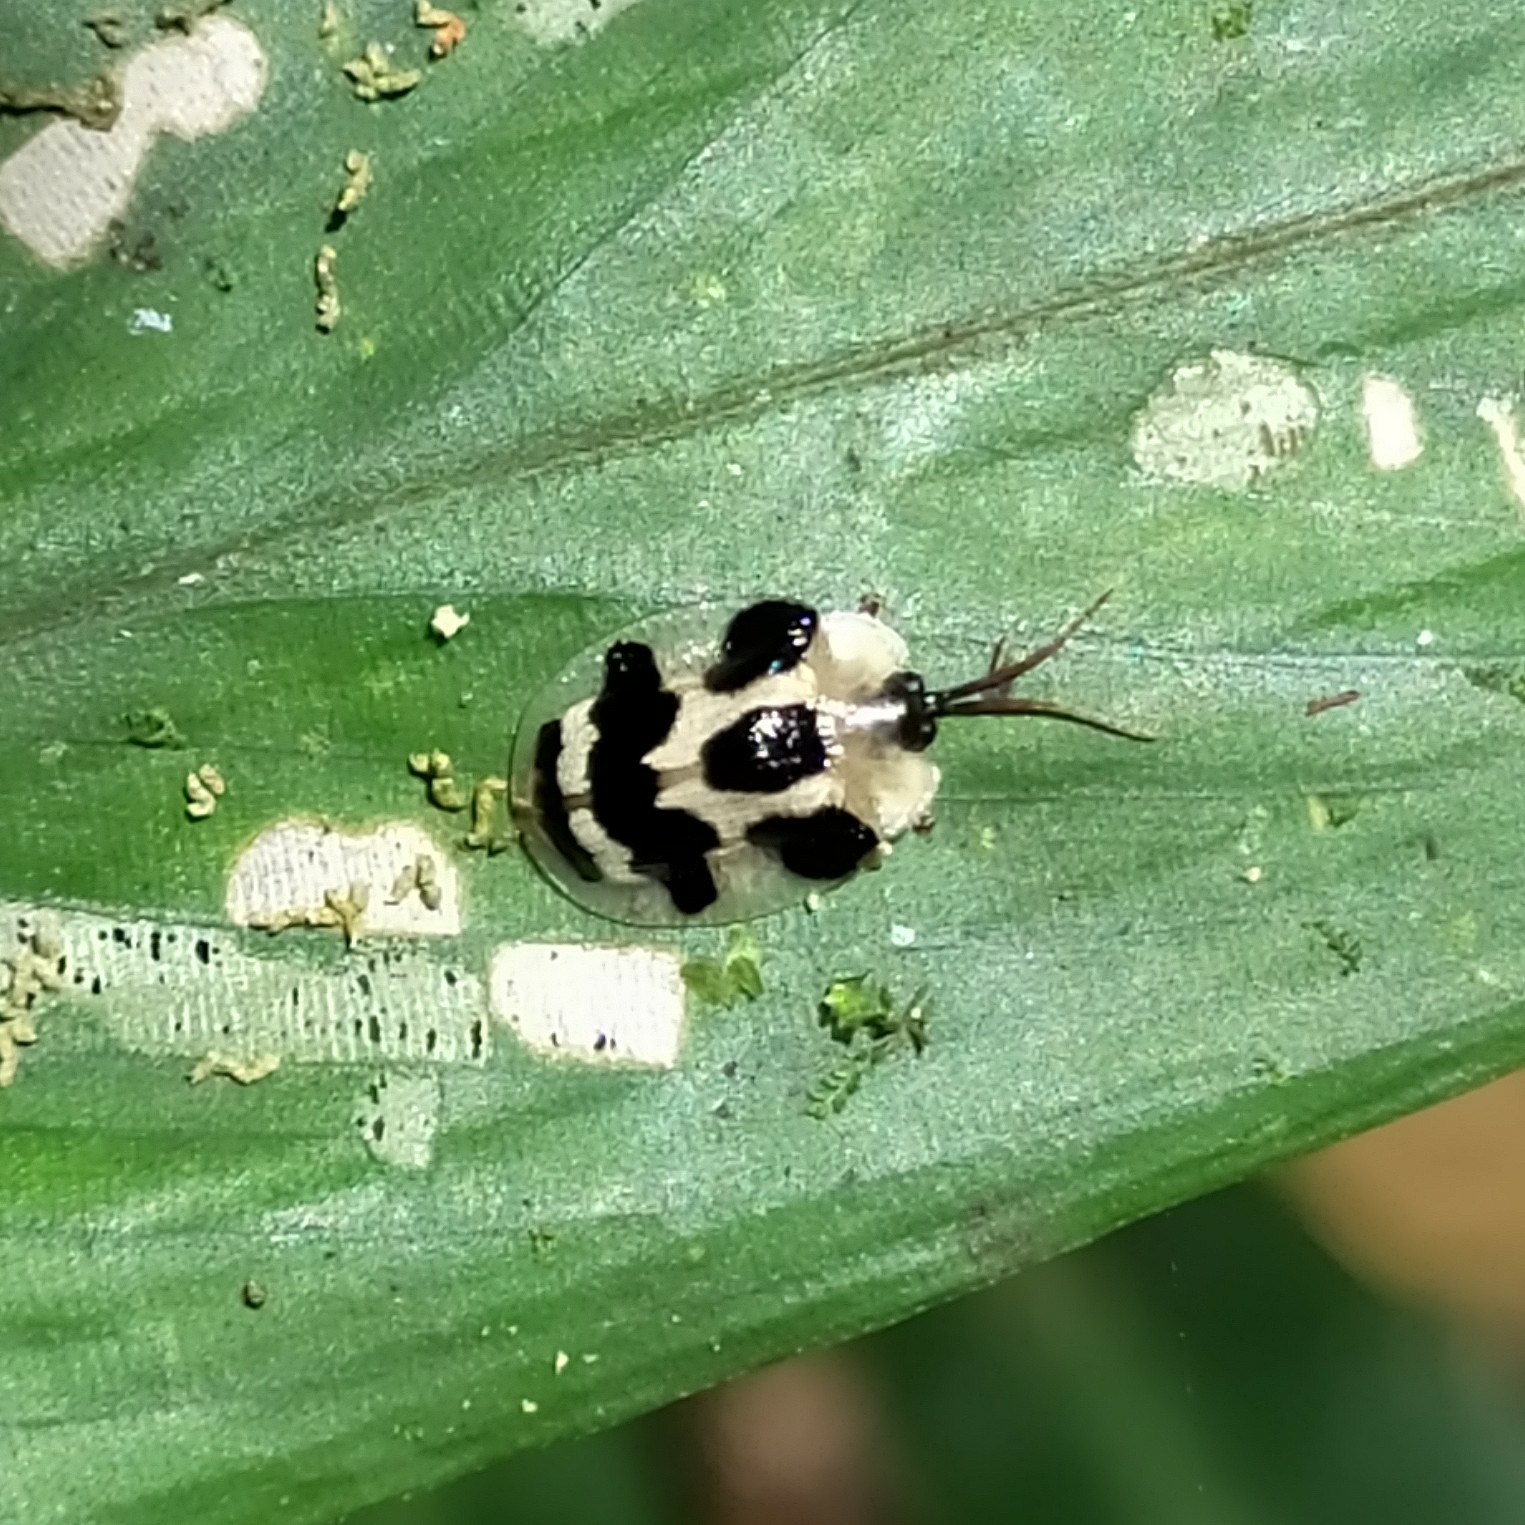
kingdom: Animalia
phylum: Arthropoda
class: Insecta
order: Coleoptera
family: Chrysomelidae
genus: Aslamidium
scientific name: Aslamidium
